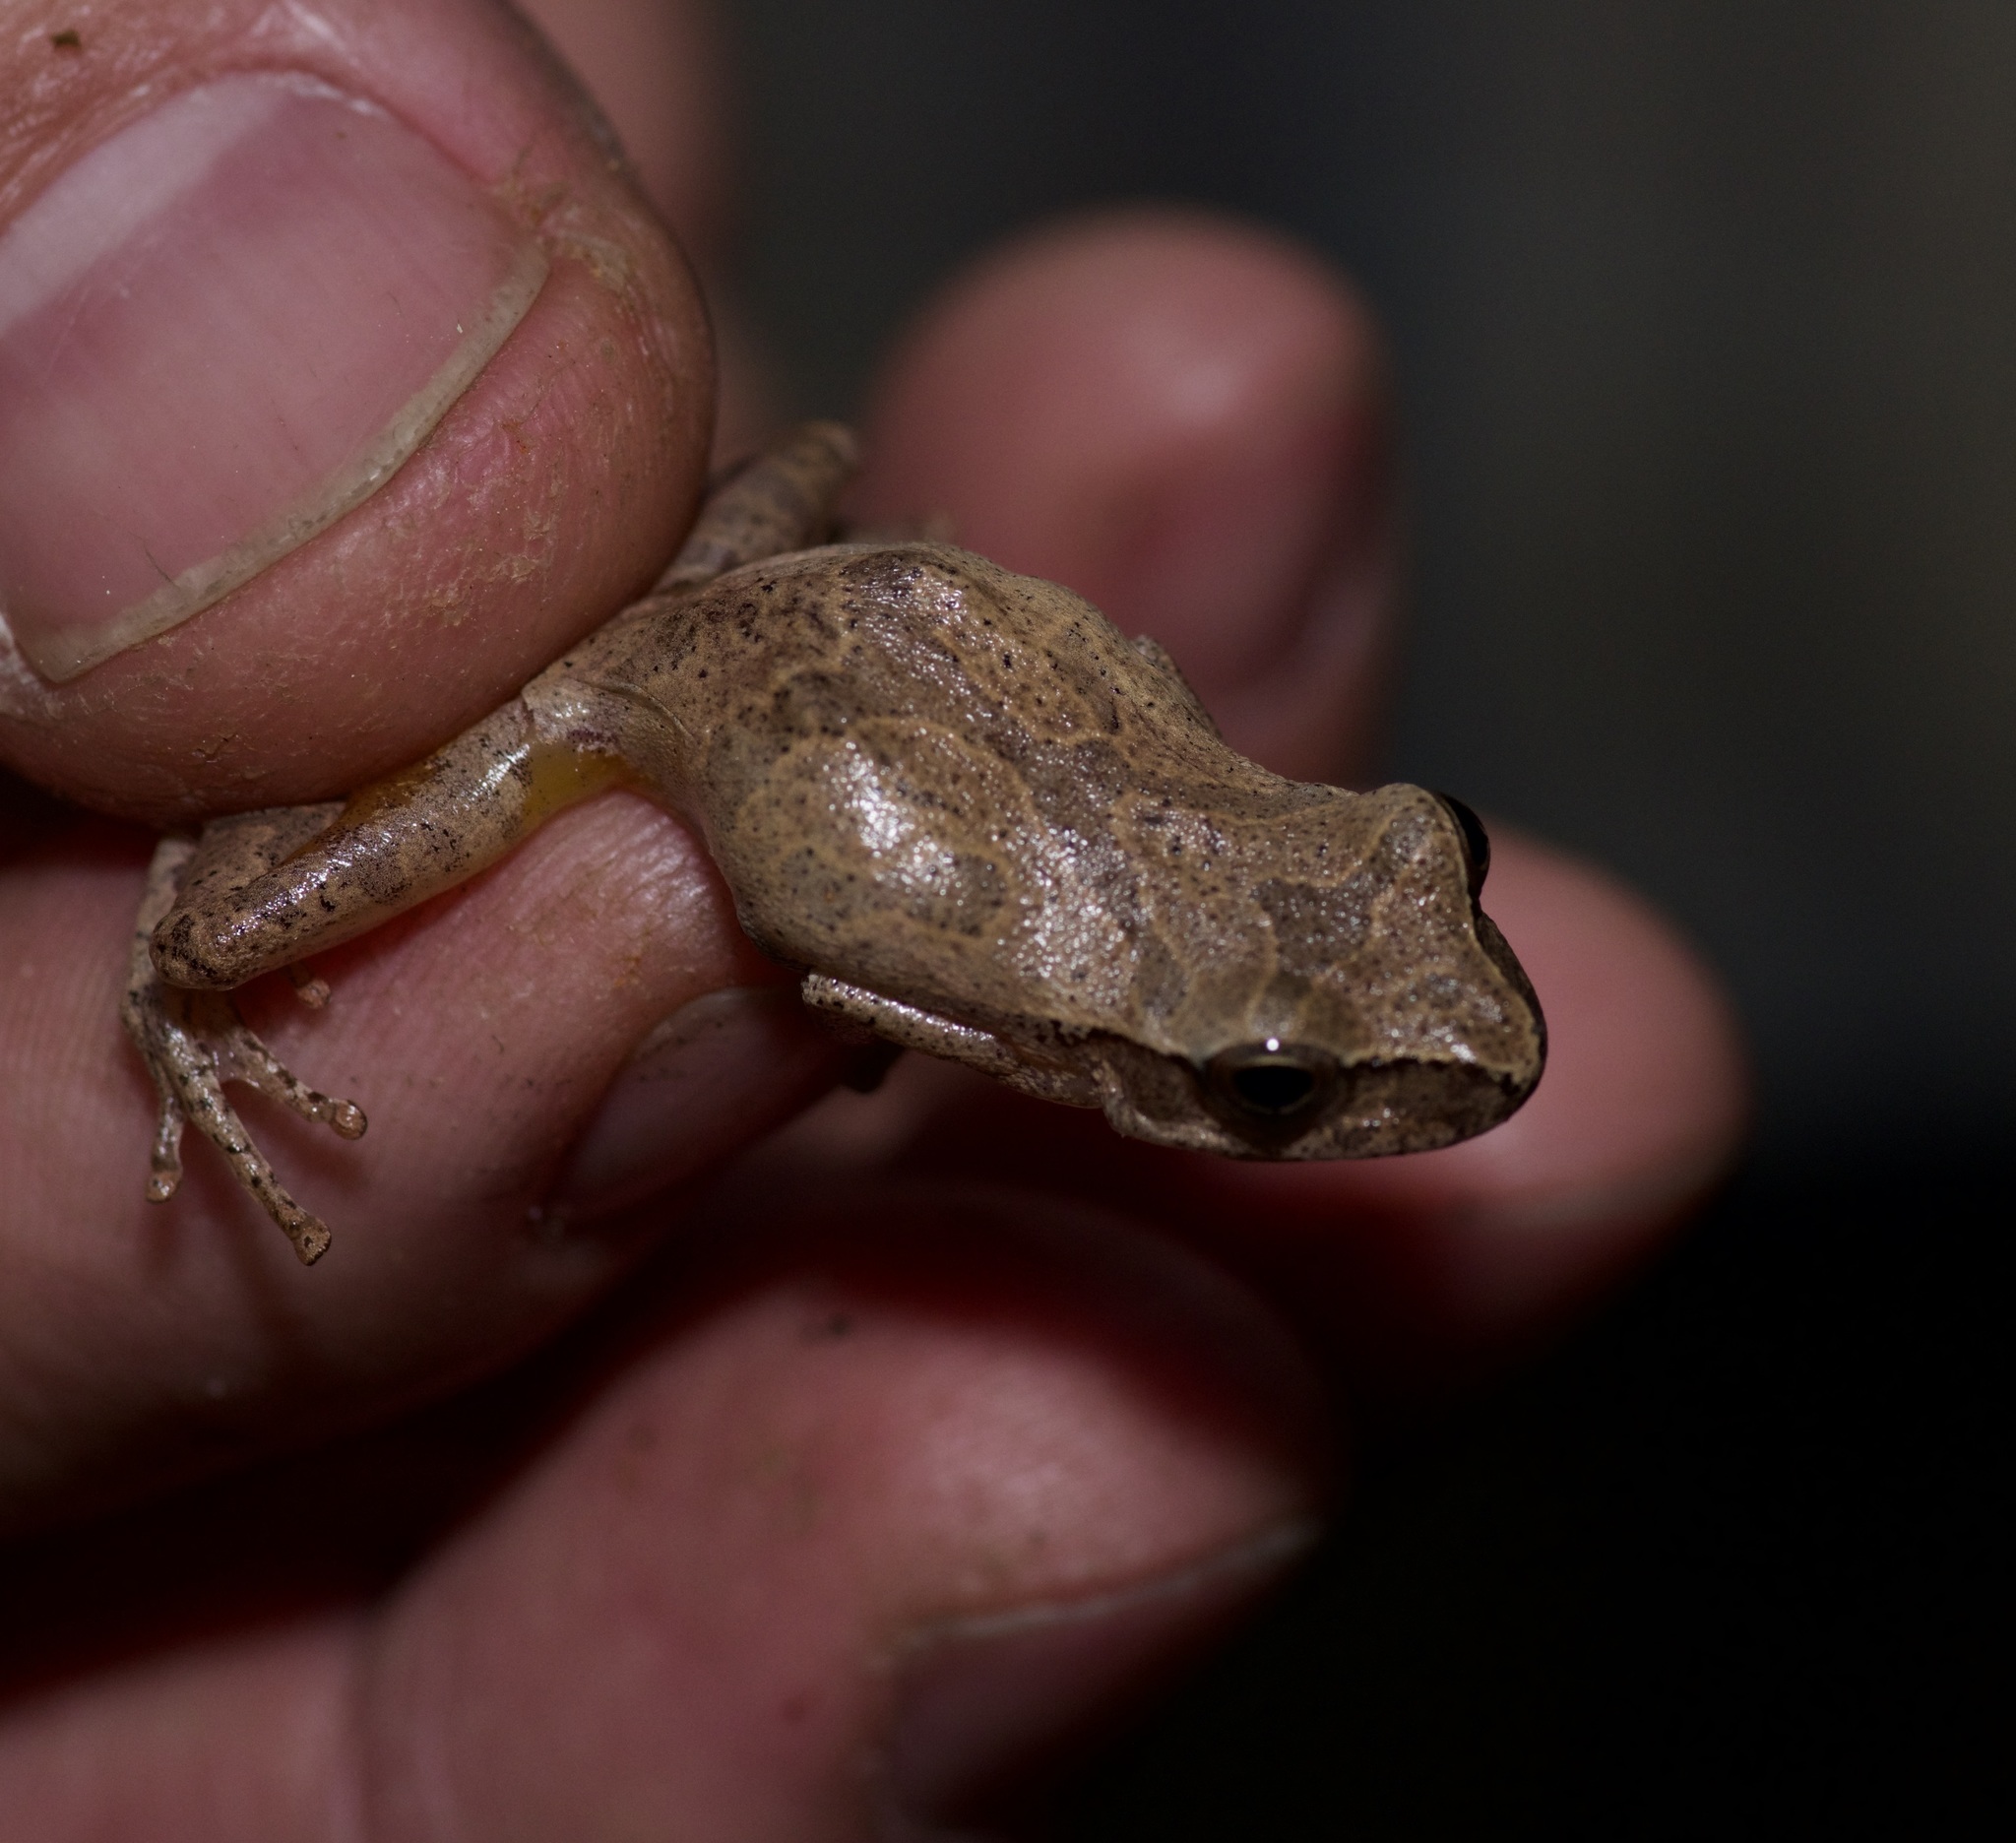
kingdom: Animalia
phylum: Chordata
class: Amphibia
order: Anura
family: Hylidae
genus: Pseudacris
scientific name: Pseudacris crucifer
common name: Spring peeper
